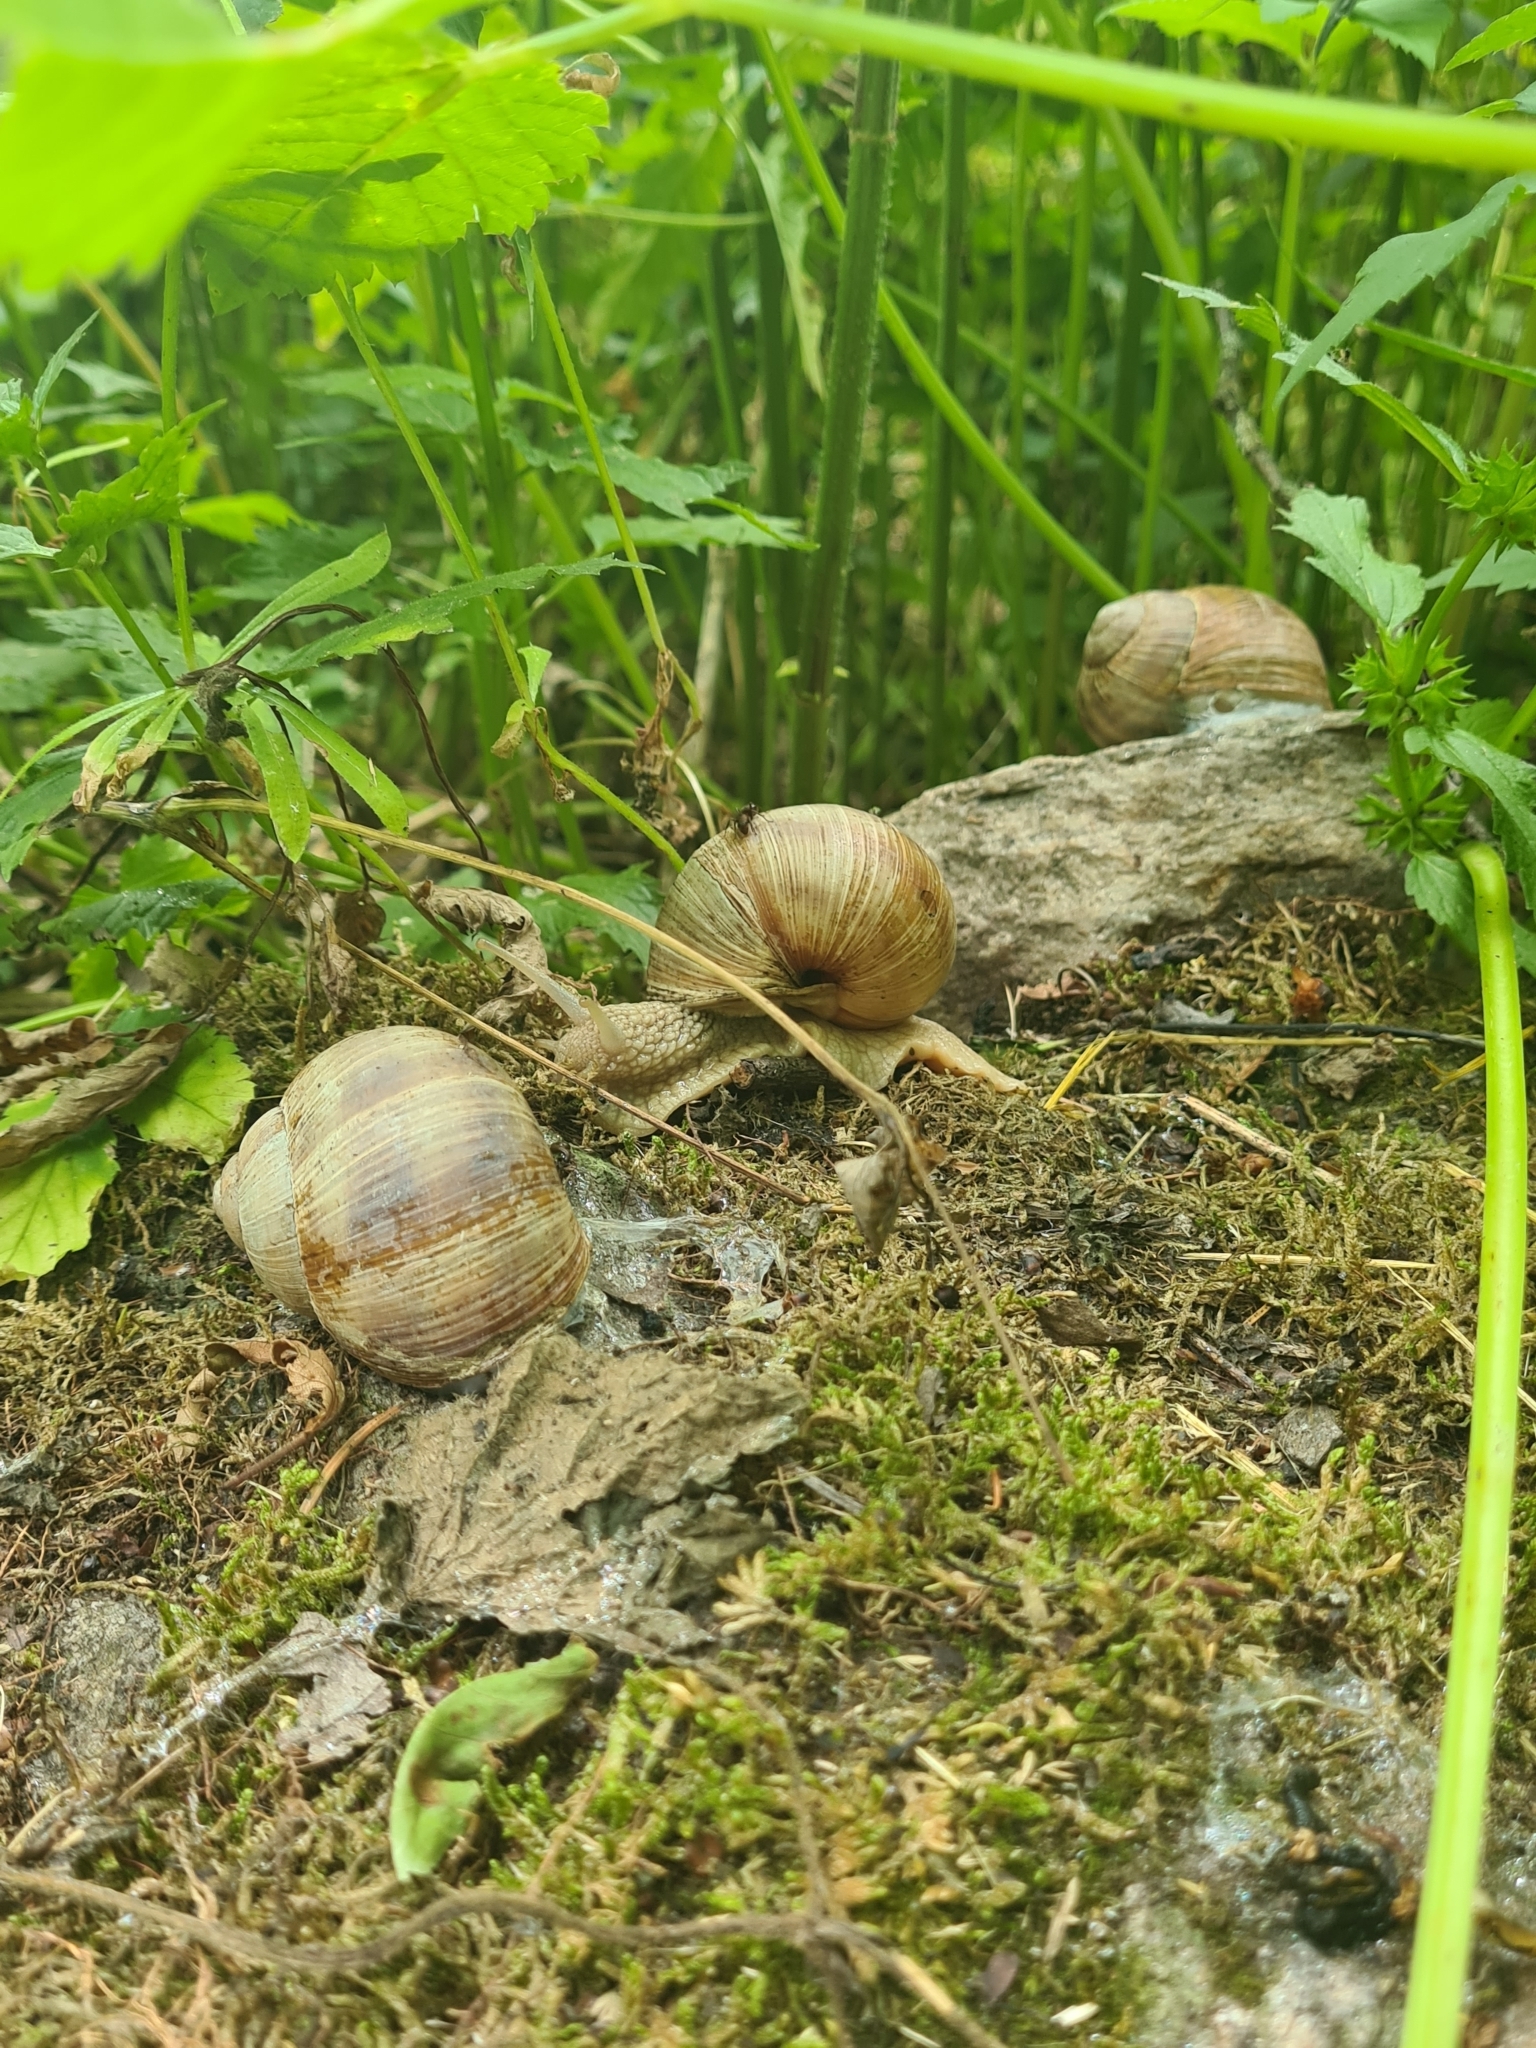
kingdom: Animalia
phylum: Mollusca
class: Gastropoda
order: Stylommatophora
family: Helicidae
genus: Helix
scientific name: Helix pomatia
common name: Roman snail
